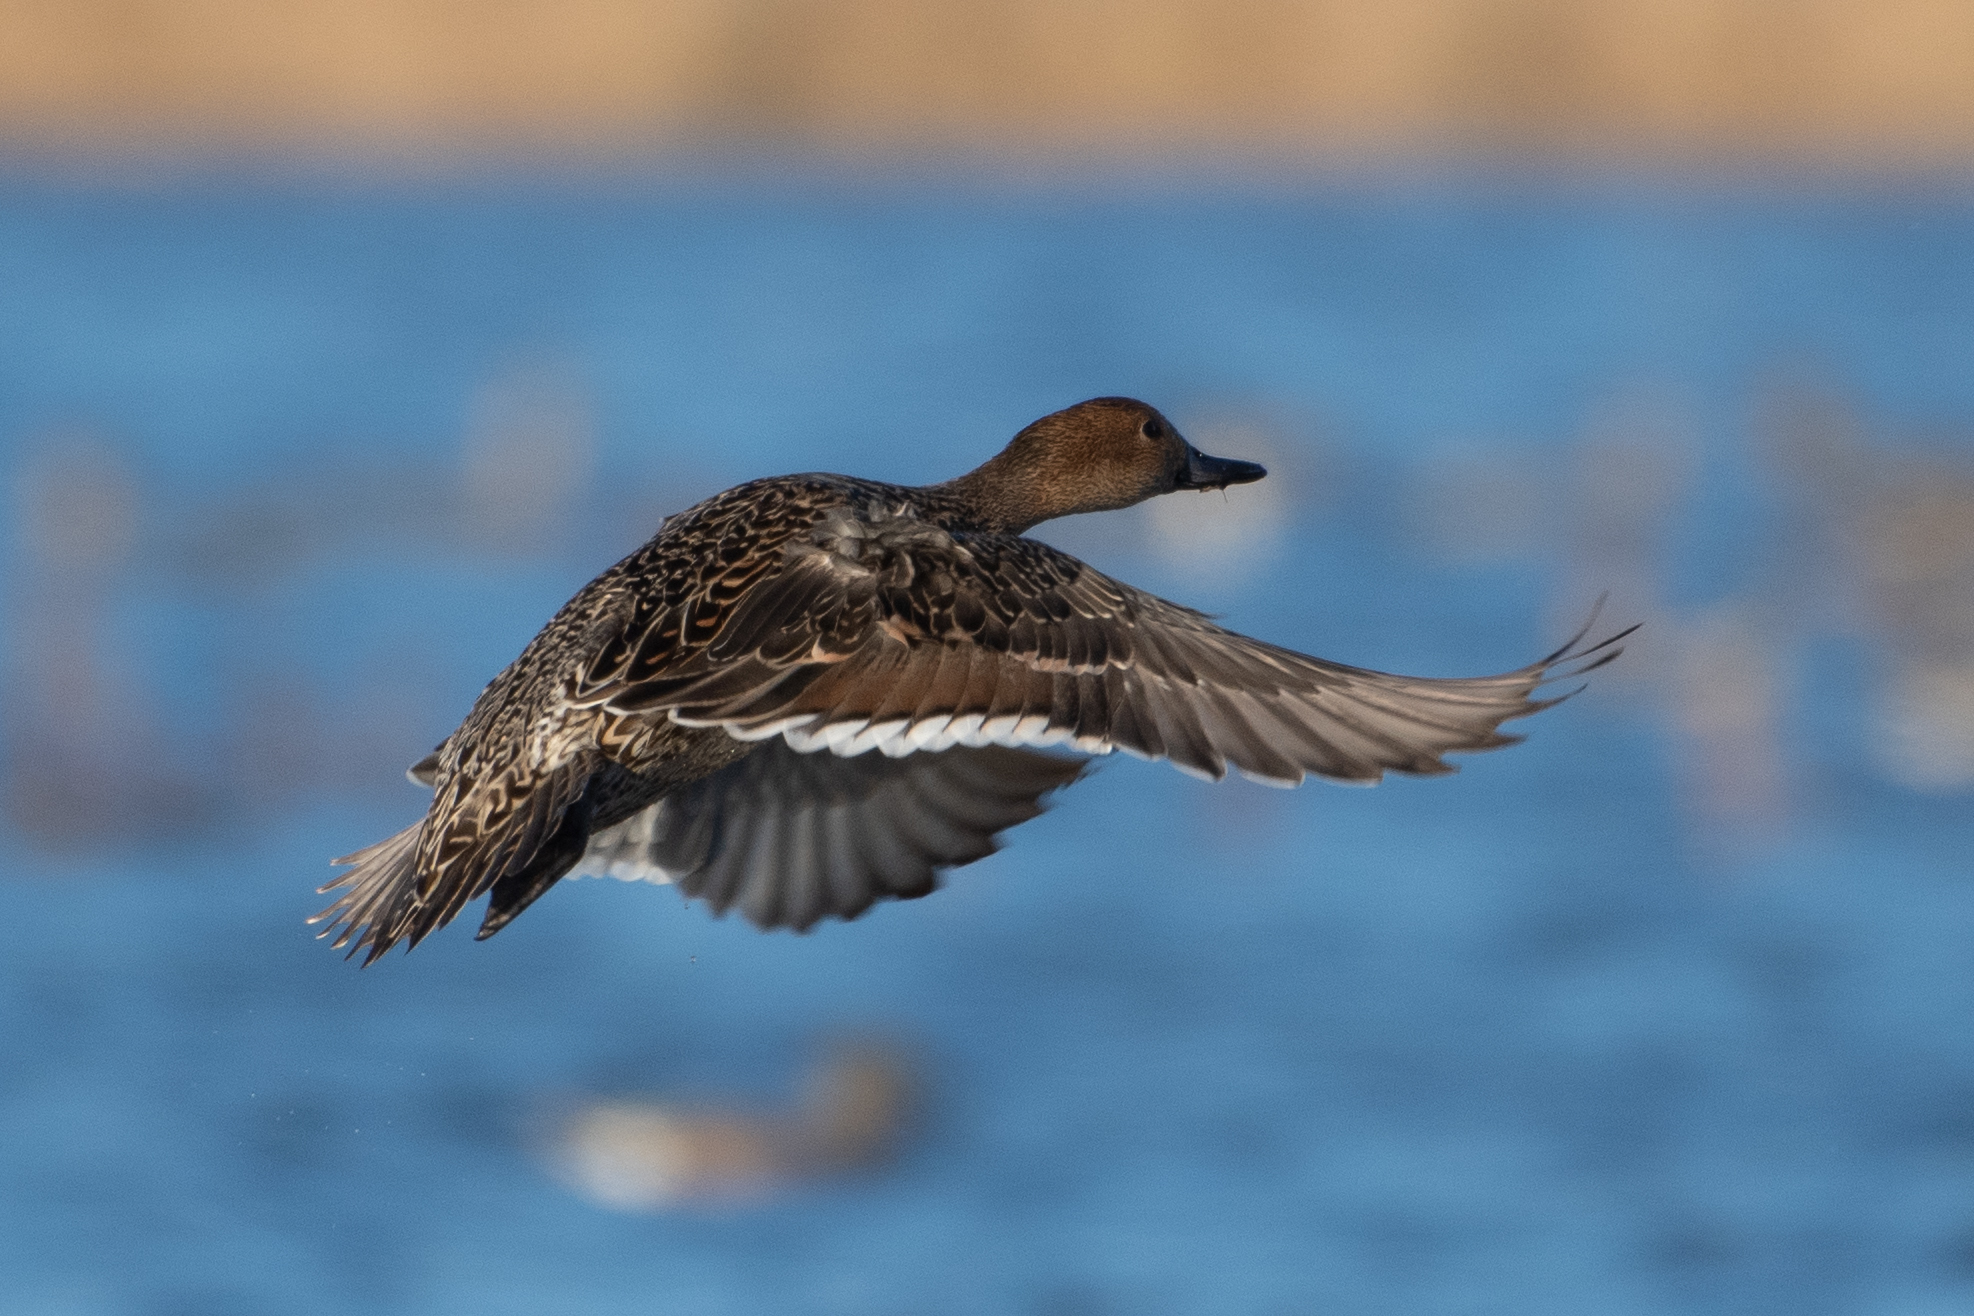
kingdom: Animalia
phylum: Chordata
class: Aves
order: Anseriformes
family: Anatidae
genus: Anas
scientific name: Anas acuta
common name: Northern pintail
